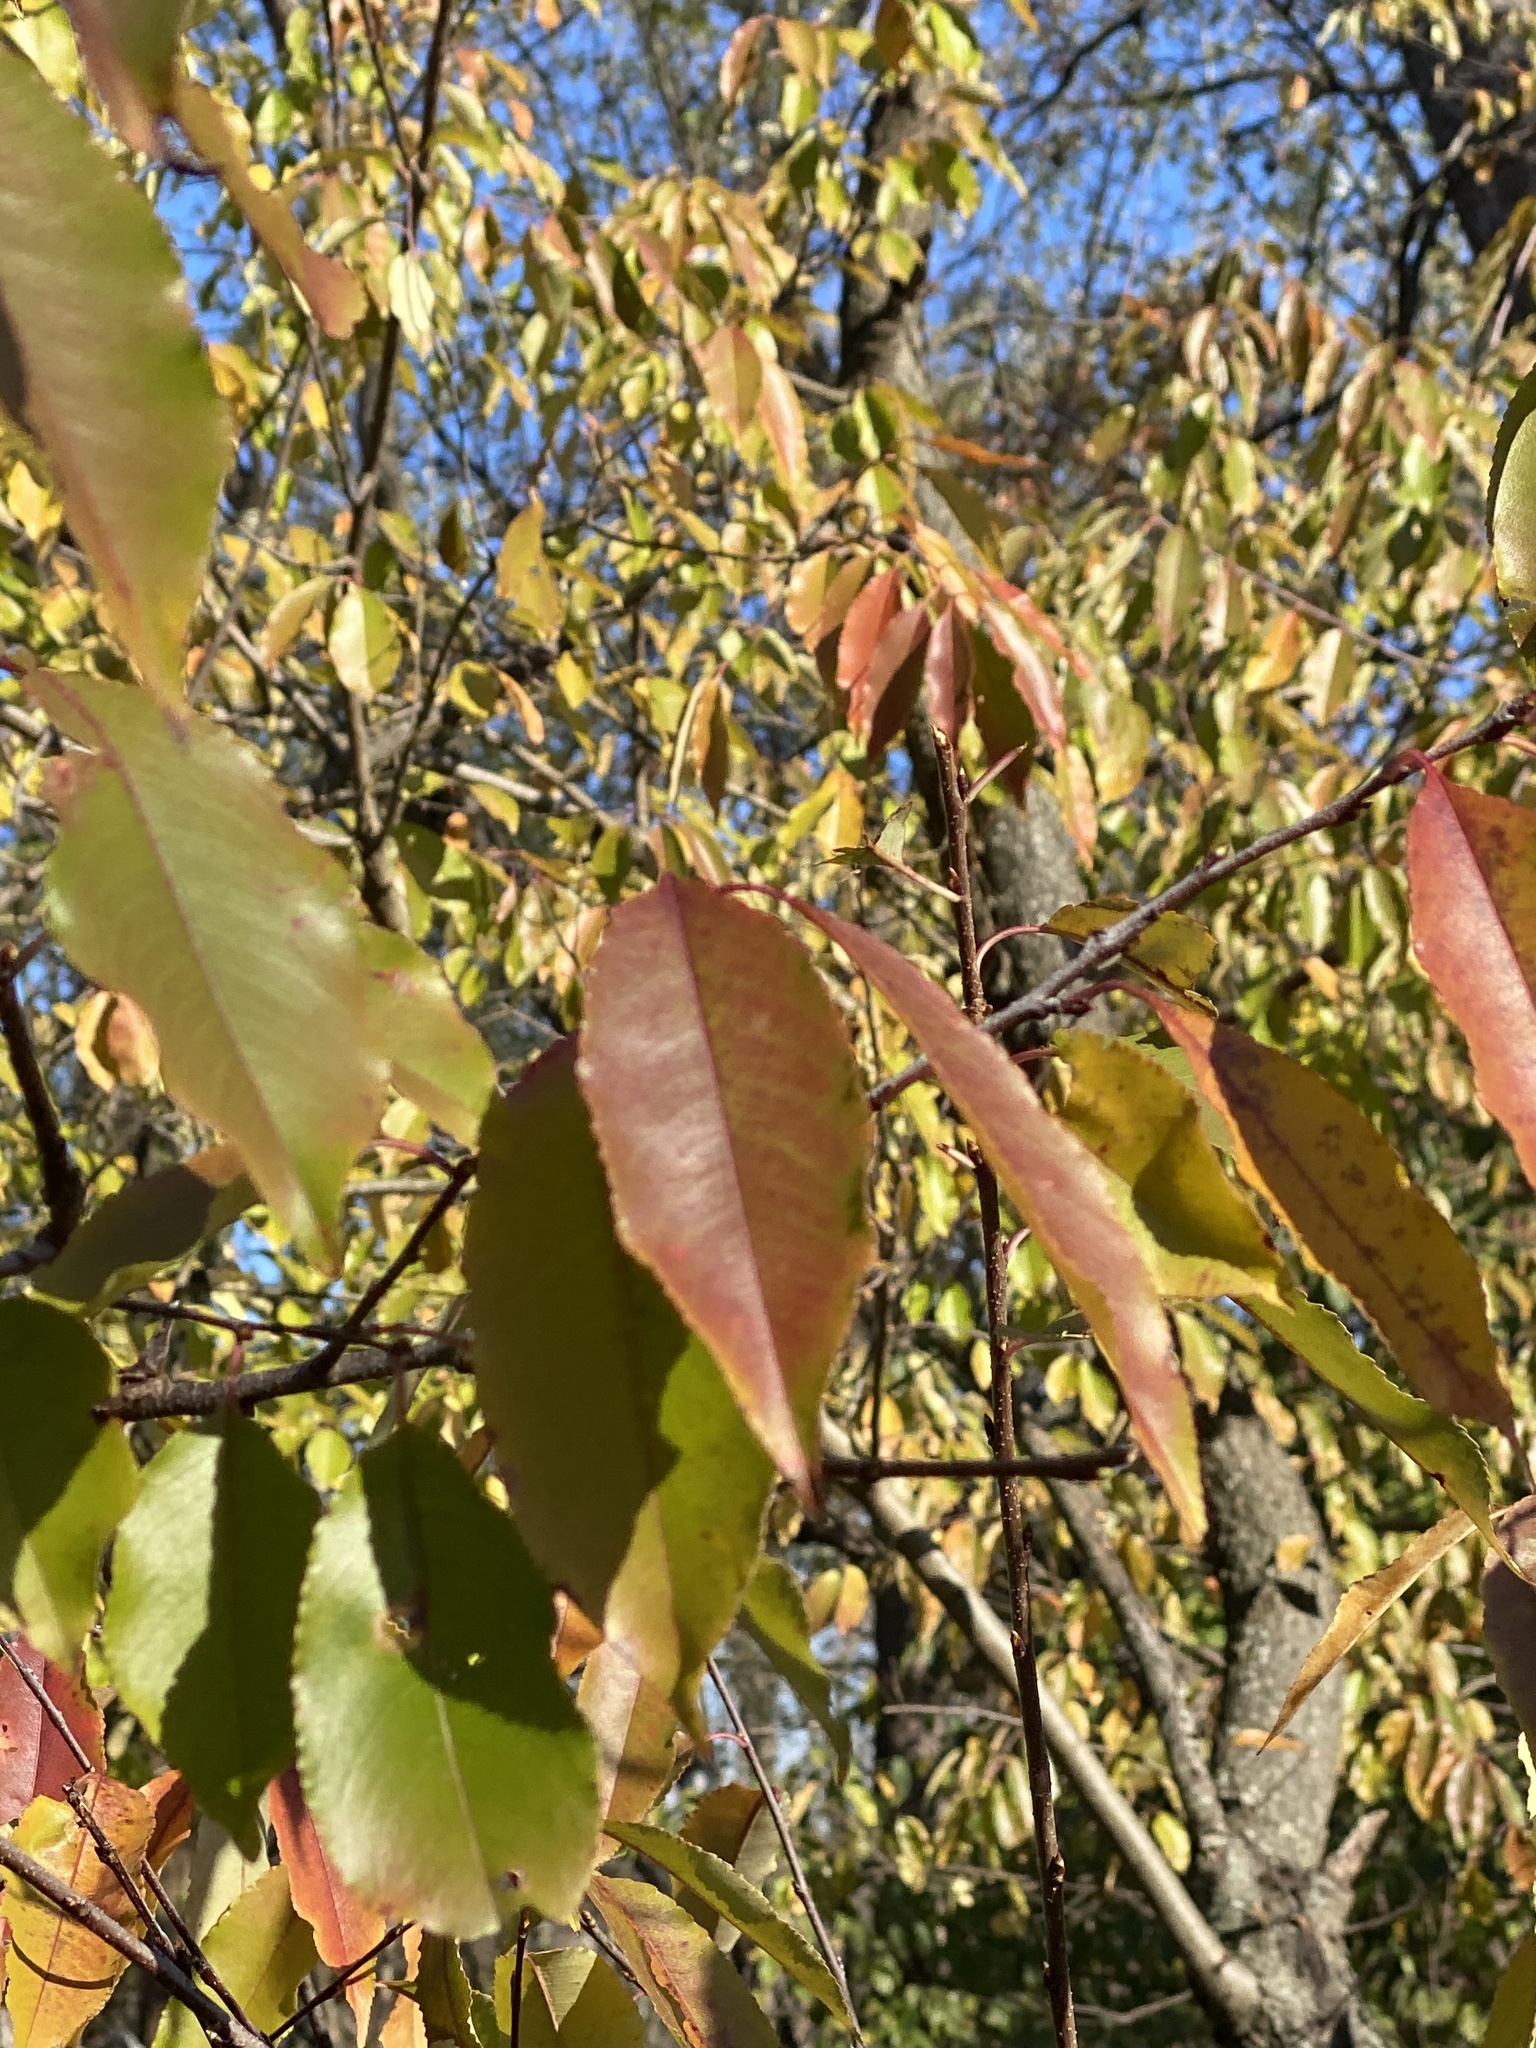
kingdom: Plantae
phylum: Tracheophyta
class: Magnoliopsida
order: Rosales
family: Rosaceae
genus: Prunus
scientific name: Prunus serotina
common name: Black cherry
